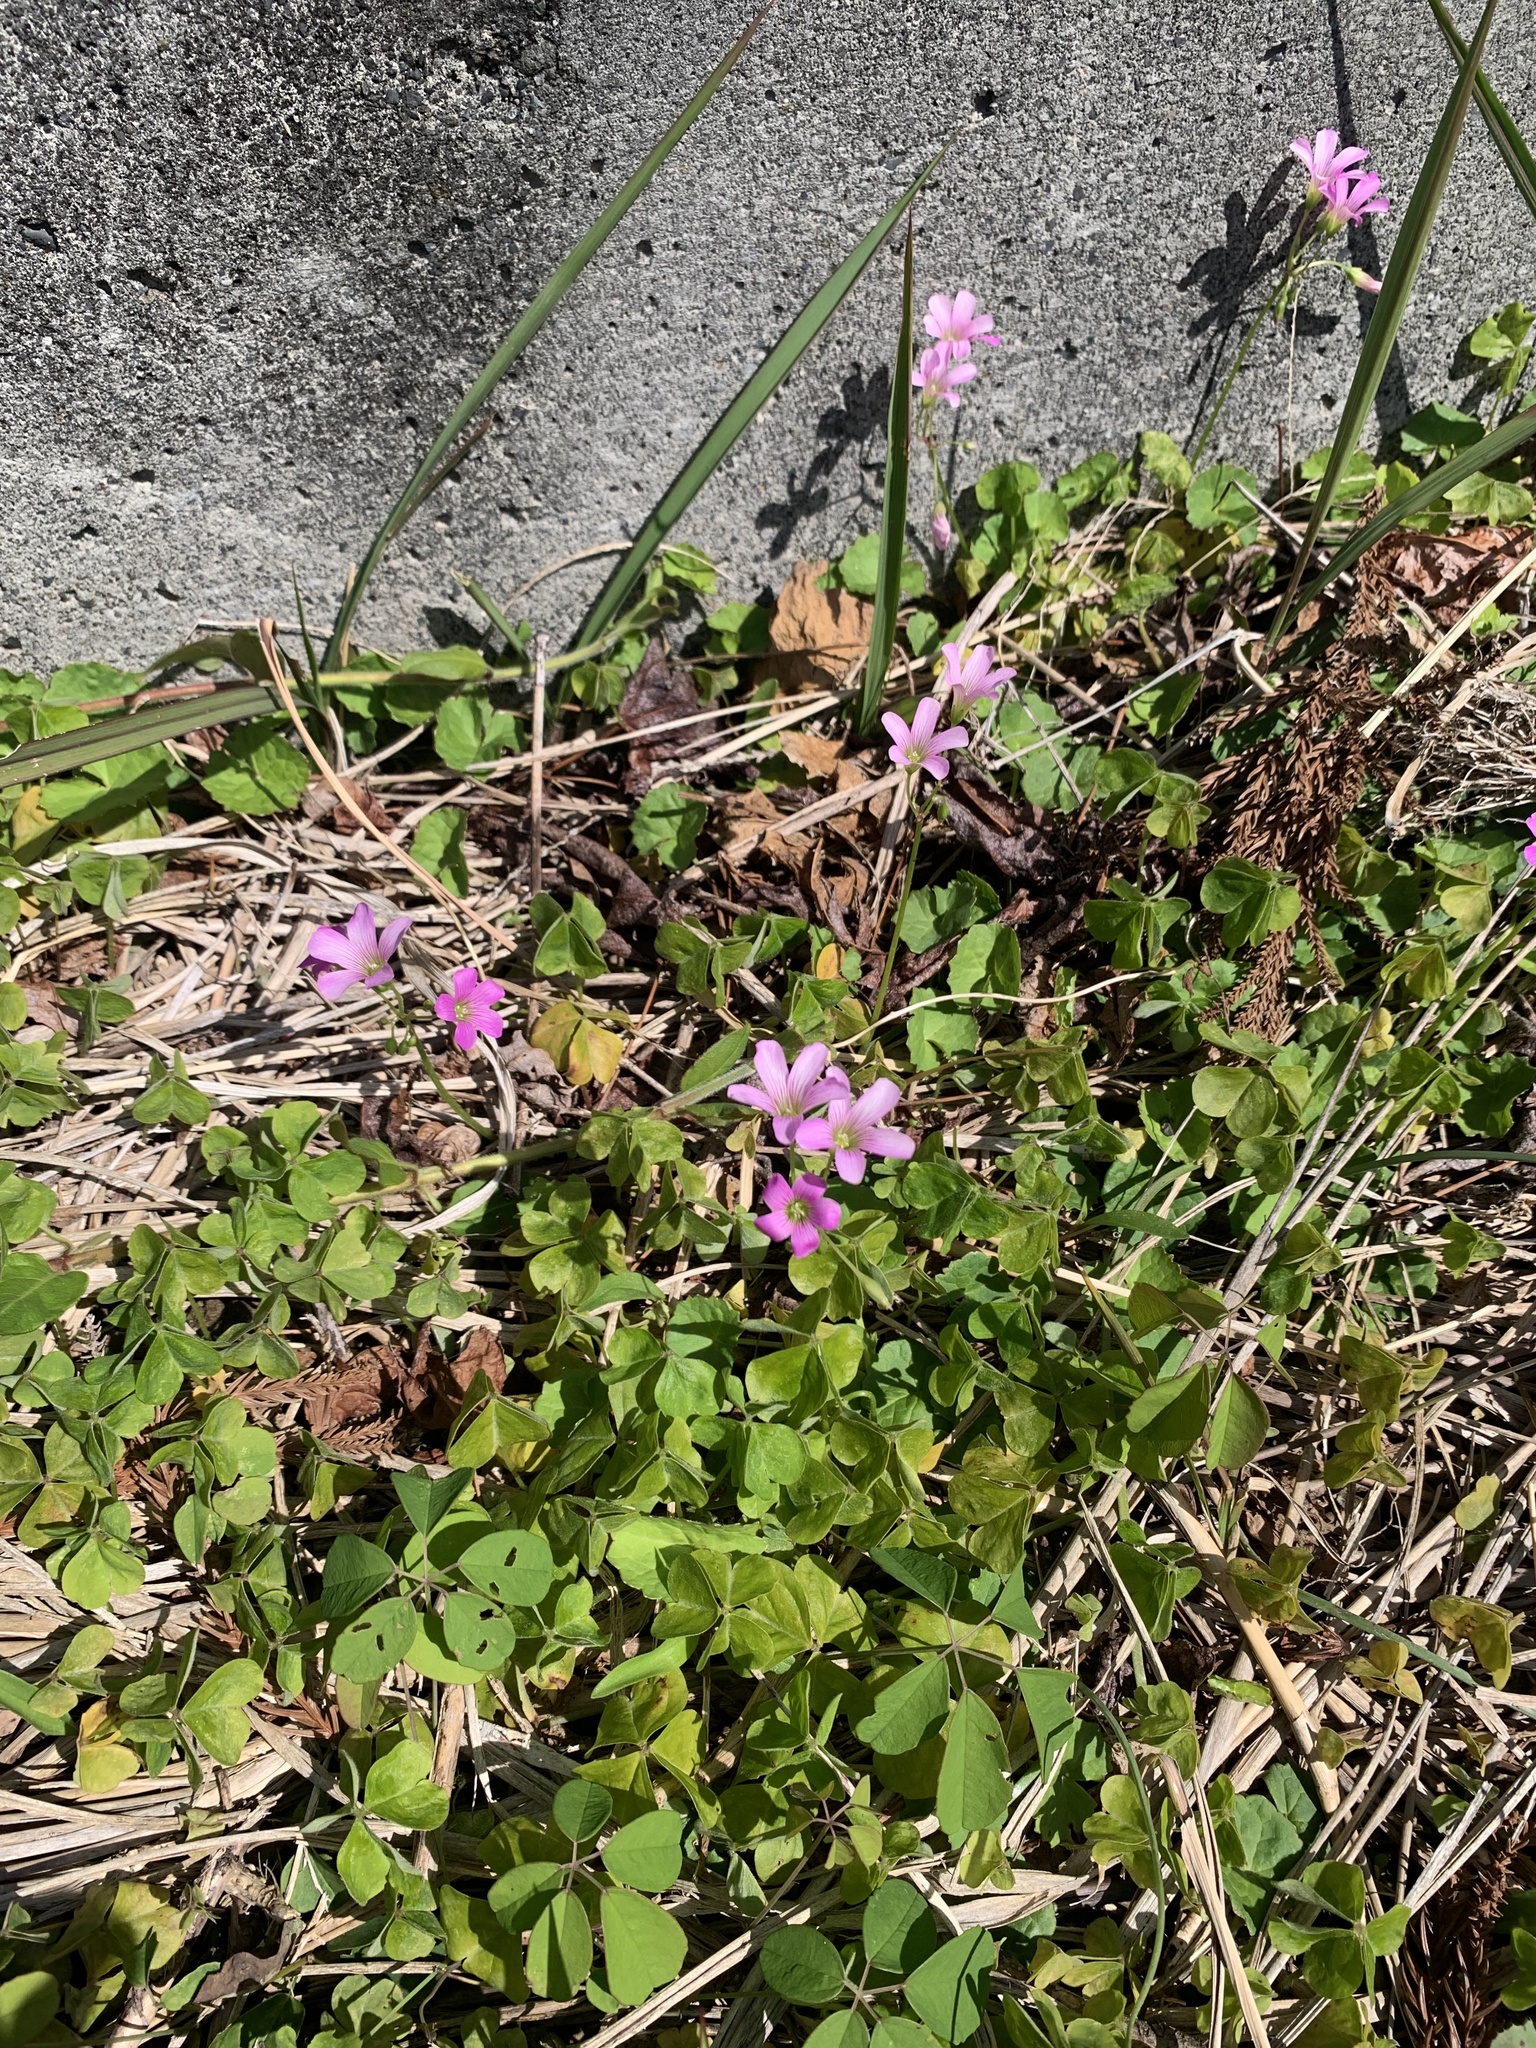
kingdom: Plantae
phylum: Tracheophyta
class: Magnoliopsida
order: Oxalidales
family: Oxalidaceae
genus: Oxalis
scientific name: Oxalis debilis
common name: Large-flowered pink-sorrel
